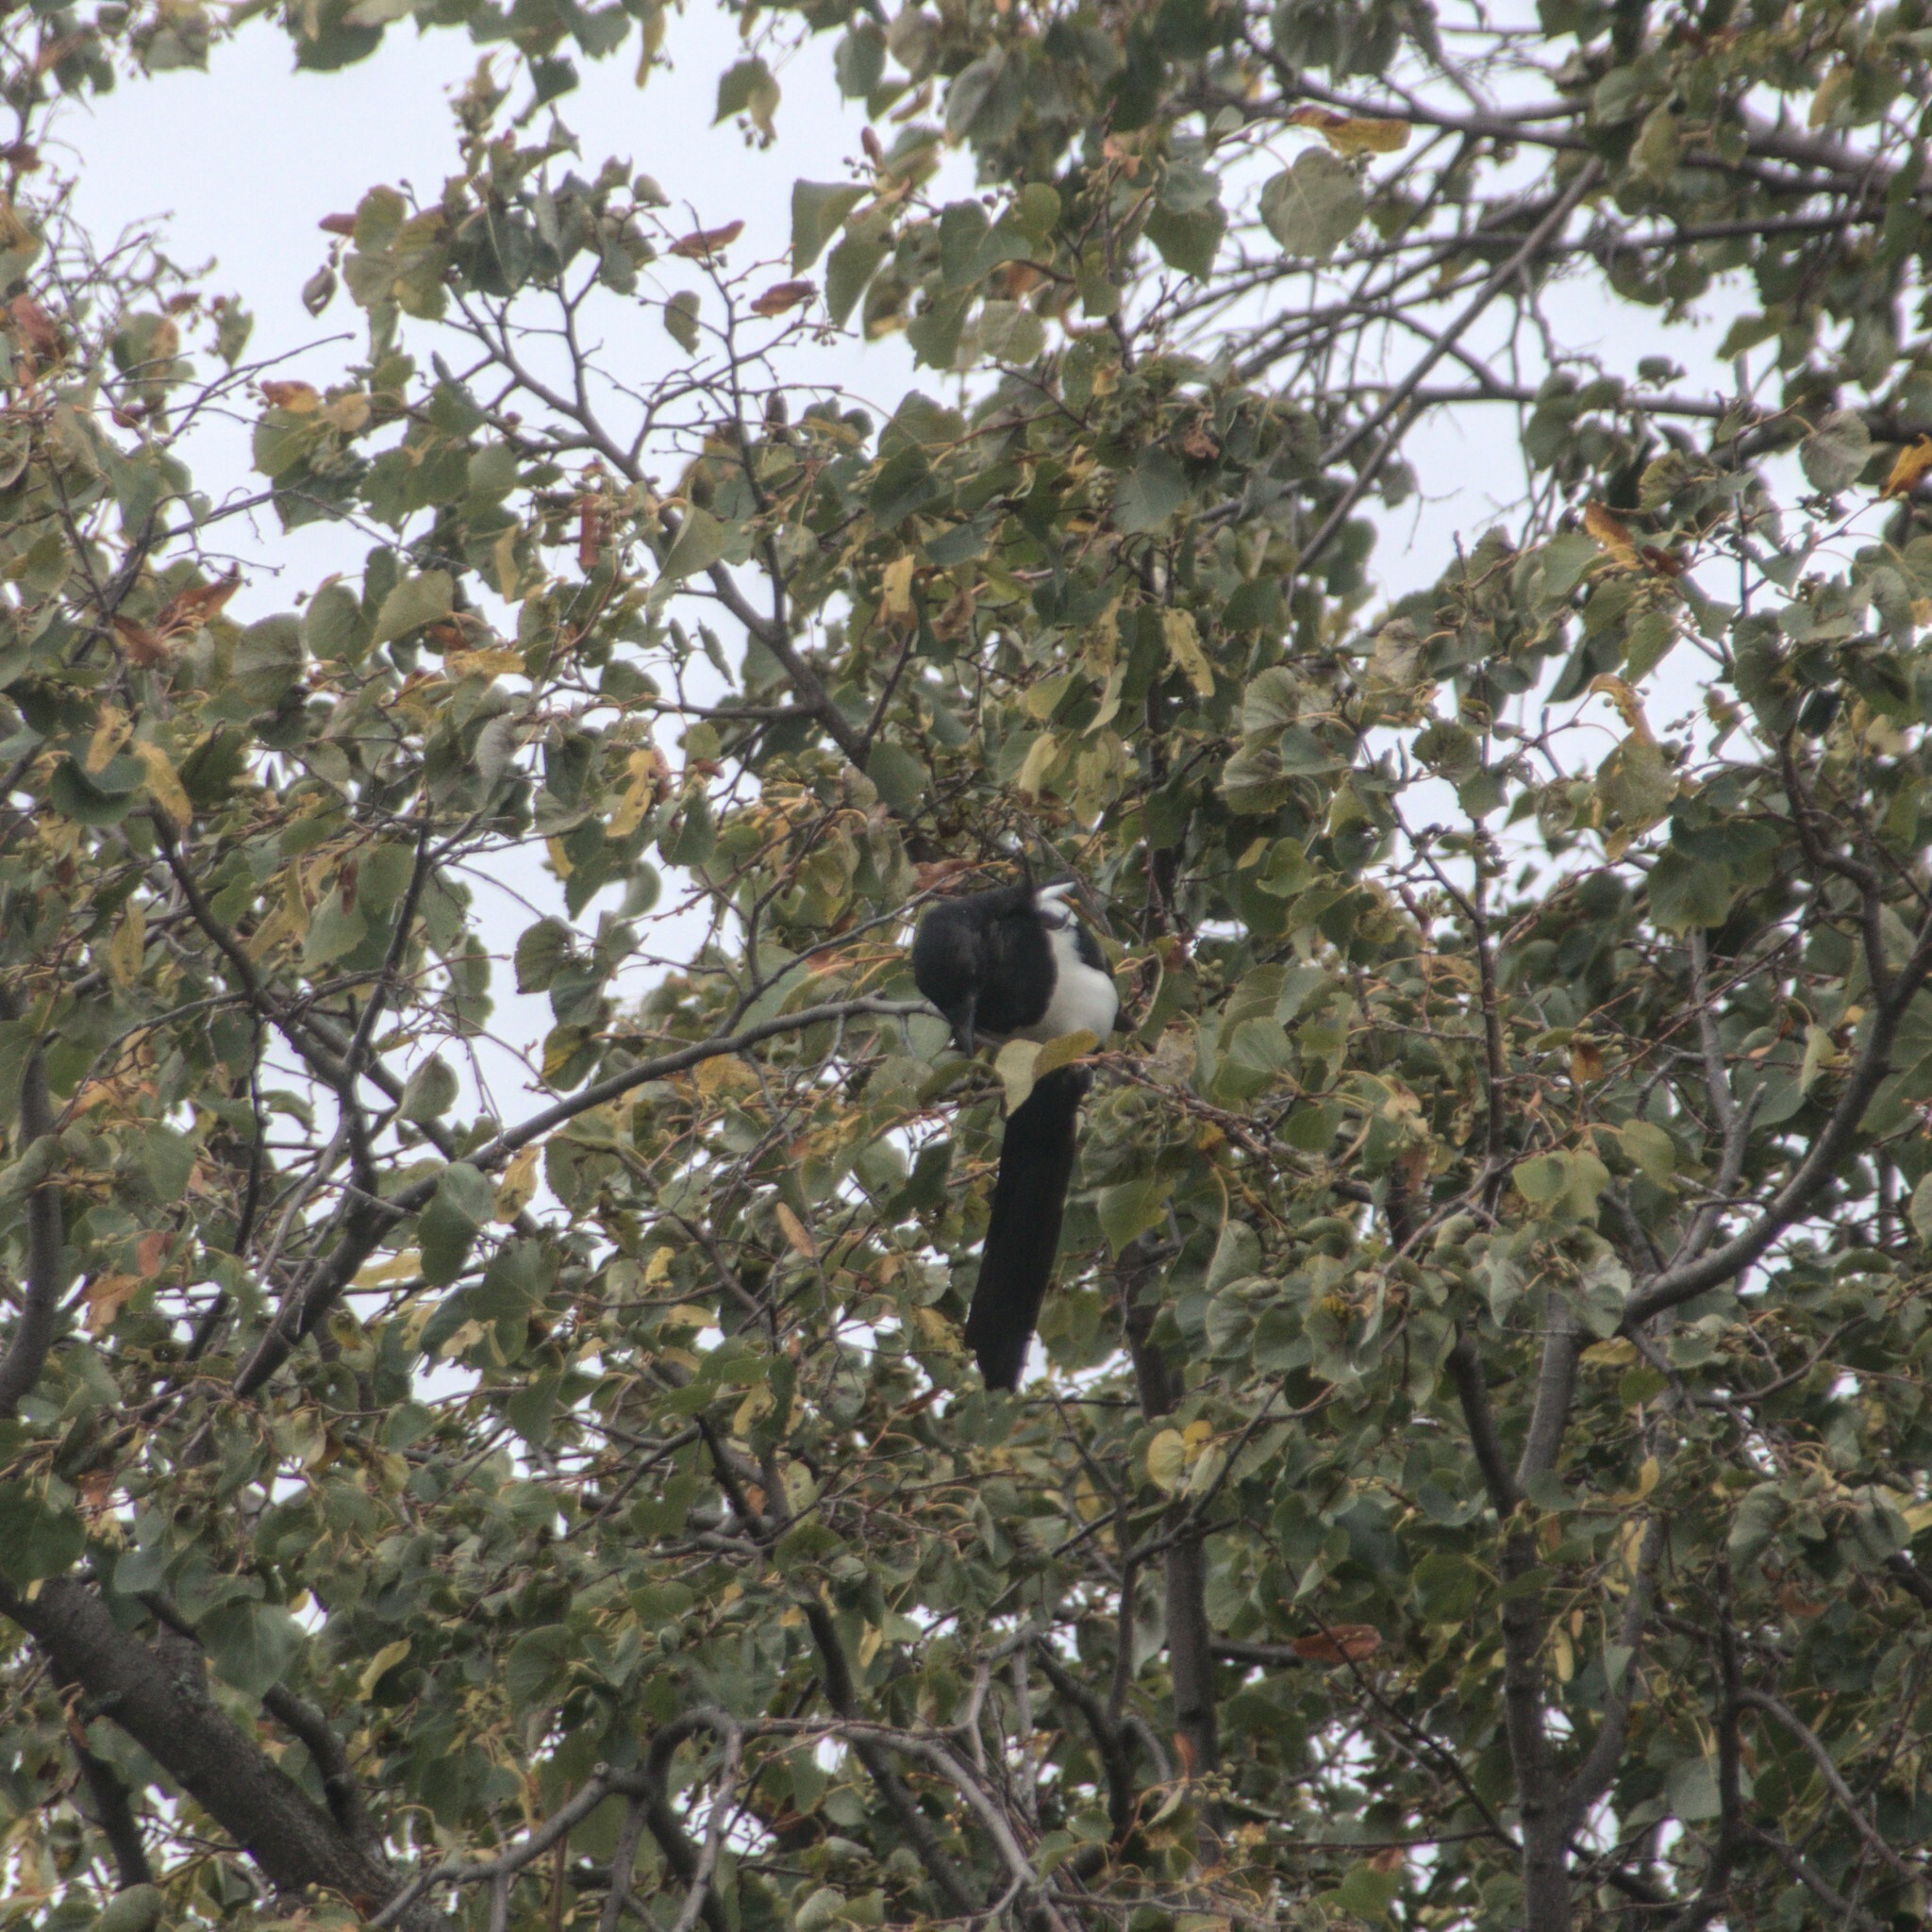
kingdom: Animalia
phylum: Chordata
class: Aves
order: Passeriformes
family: Corvidae
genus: Pica
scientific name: Pica pica
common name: Eurasian magpie
